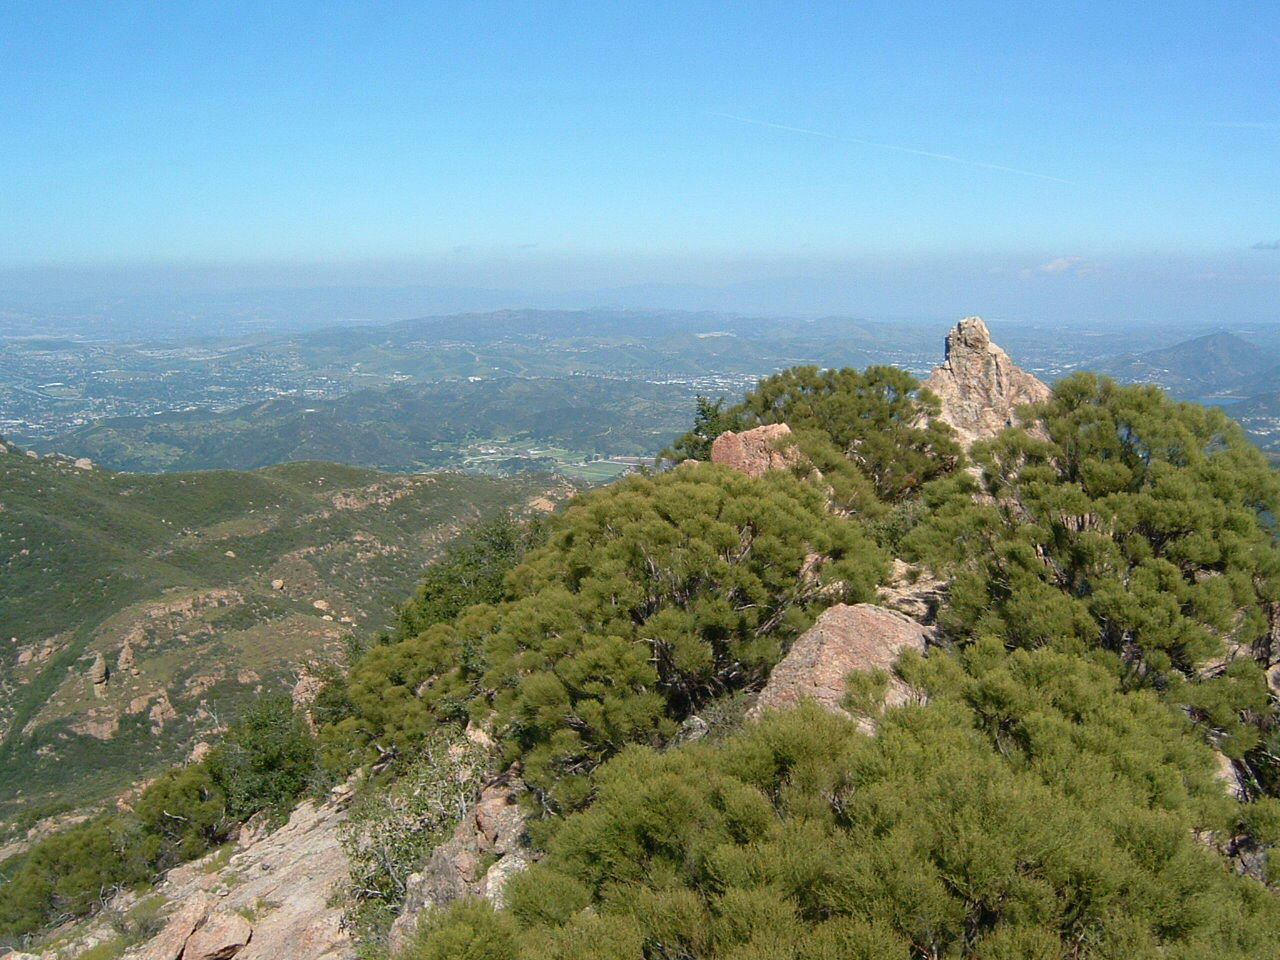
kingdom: Plantae
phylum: Tracheophyta
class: Magnoliopsida
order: Rosales
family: Rosaceae
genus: Adenostoma
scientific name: Adenostoma sparsifolium
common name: Red shank
